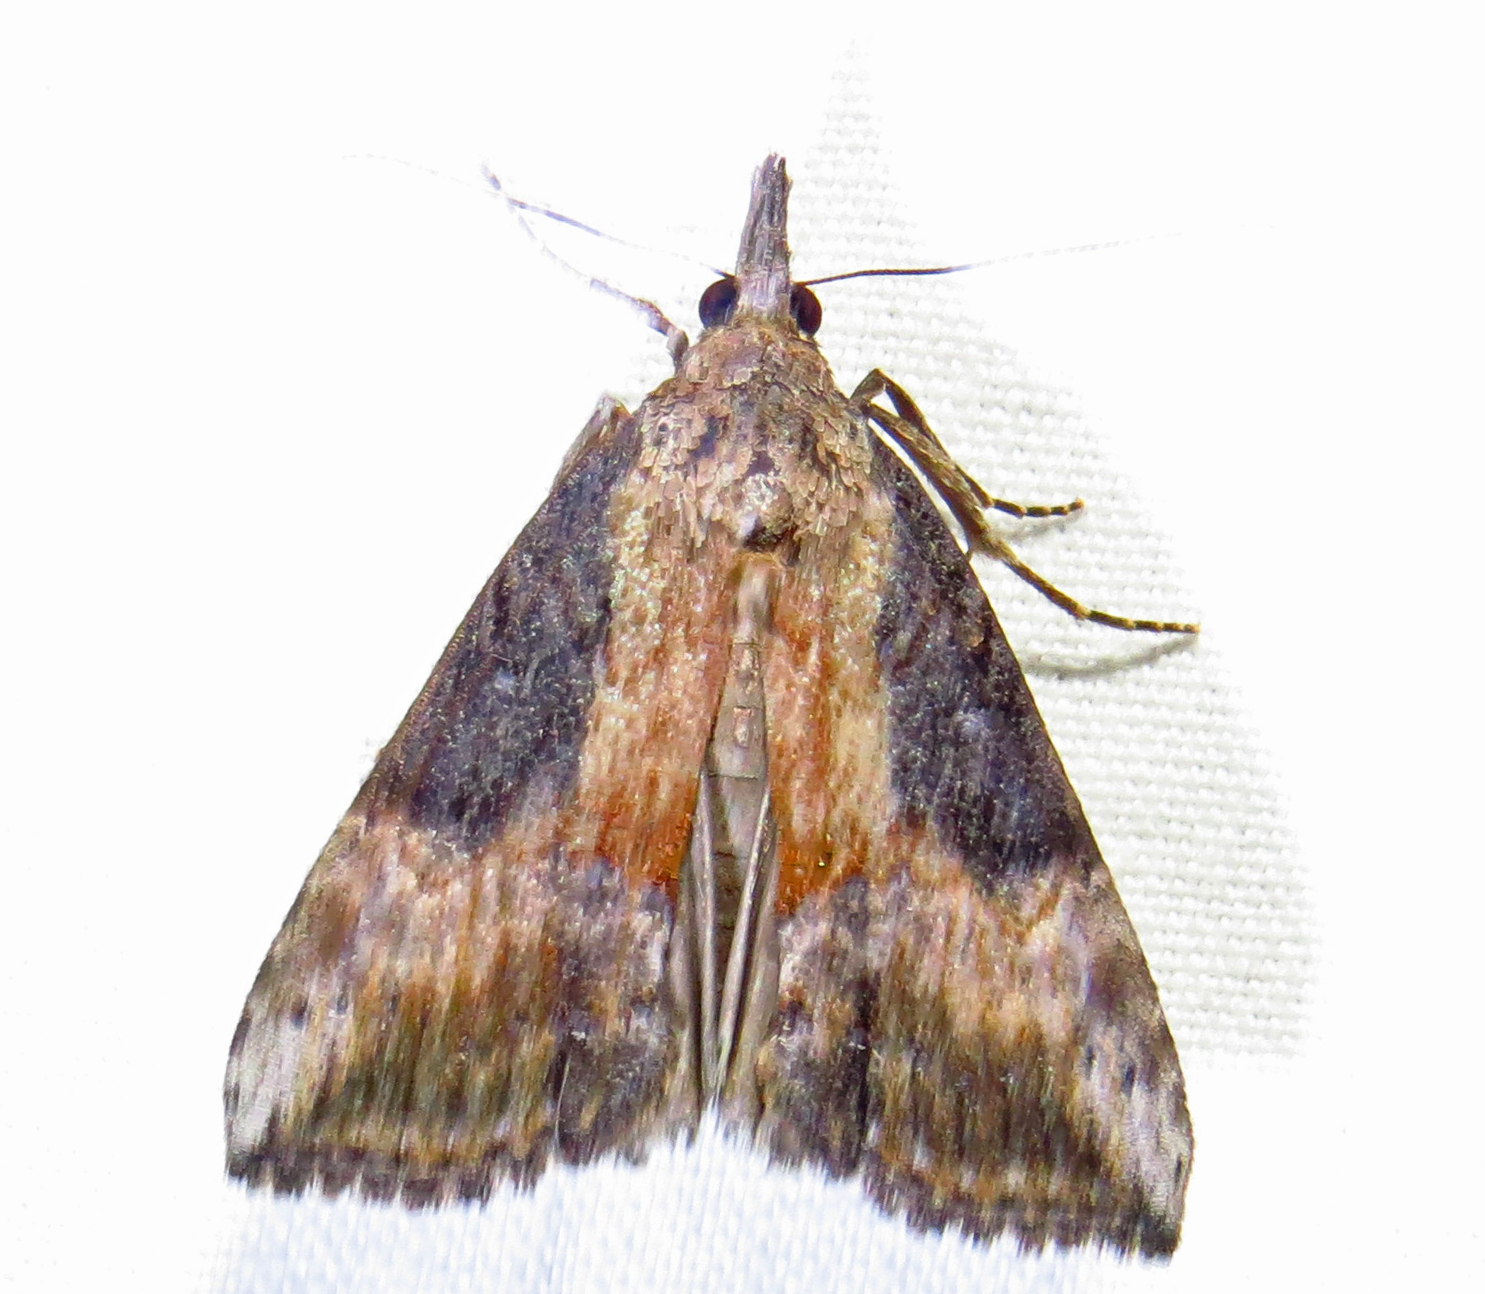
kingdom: Animalia
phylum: Arthropoda
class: Insecta
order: Lepidoptera
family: Erebidae
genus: Hypena
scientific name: Hypena scabra
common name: Green cloverworm
